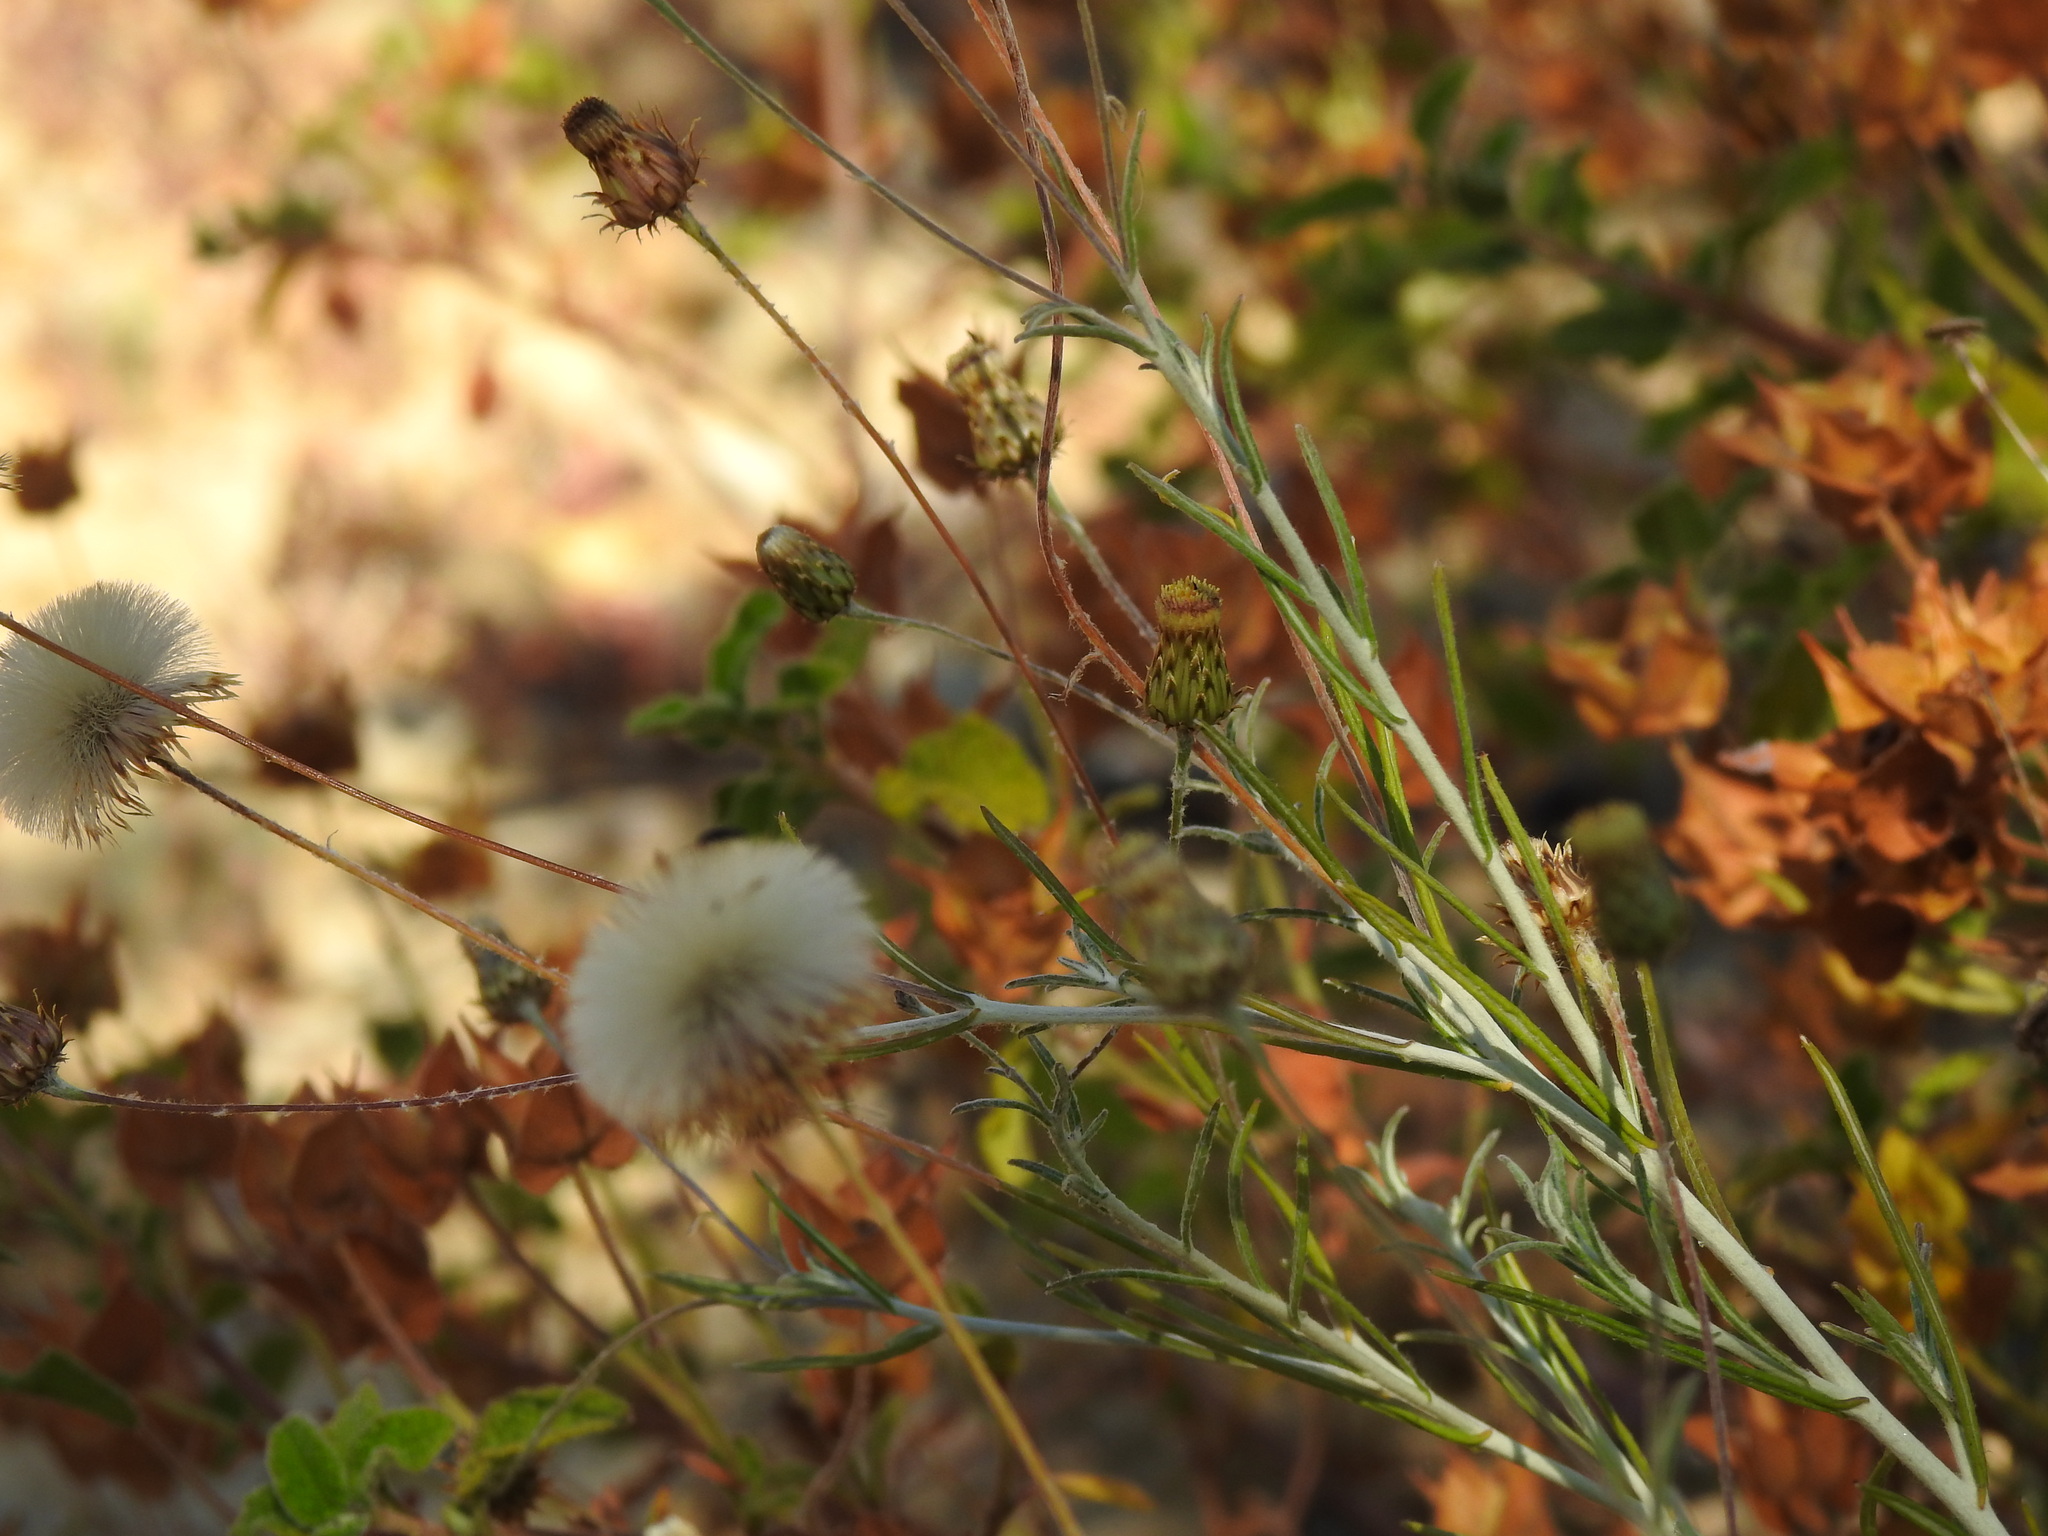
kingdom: Plantae
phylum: Tracheophyta
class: Magnoliopsida
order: Asterales
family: Asteraceae
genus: Phagnalon
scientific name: Phagnalon saxatile
